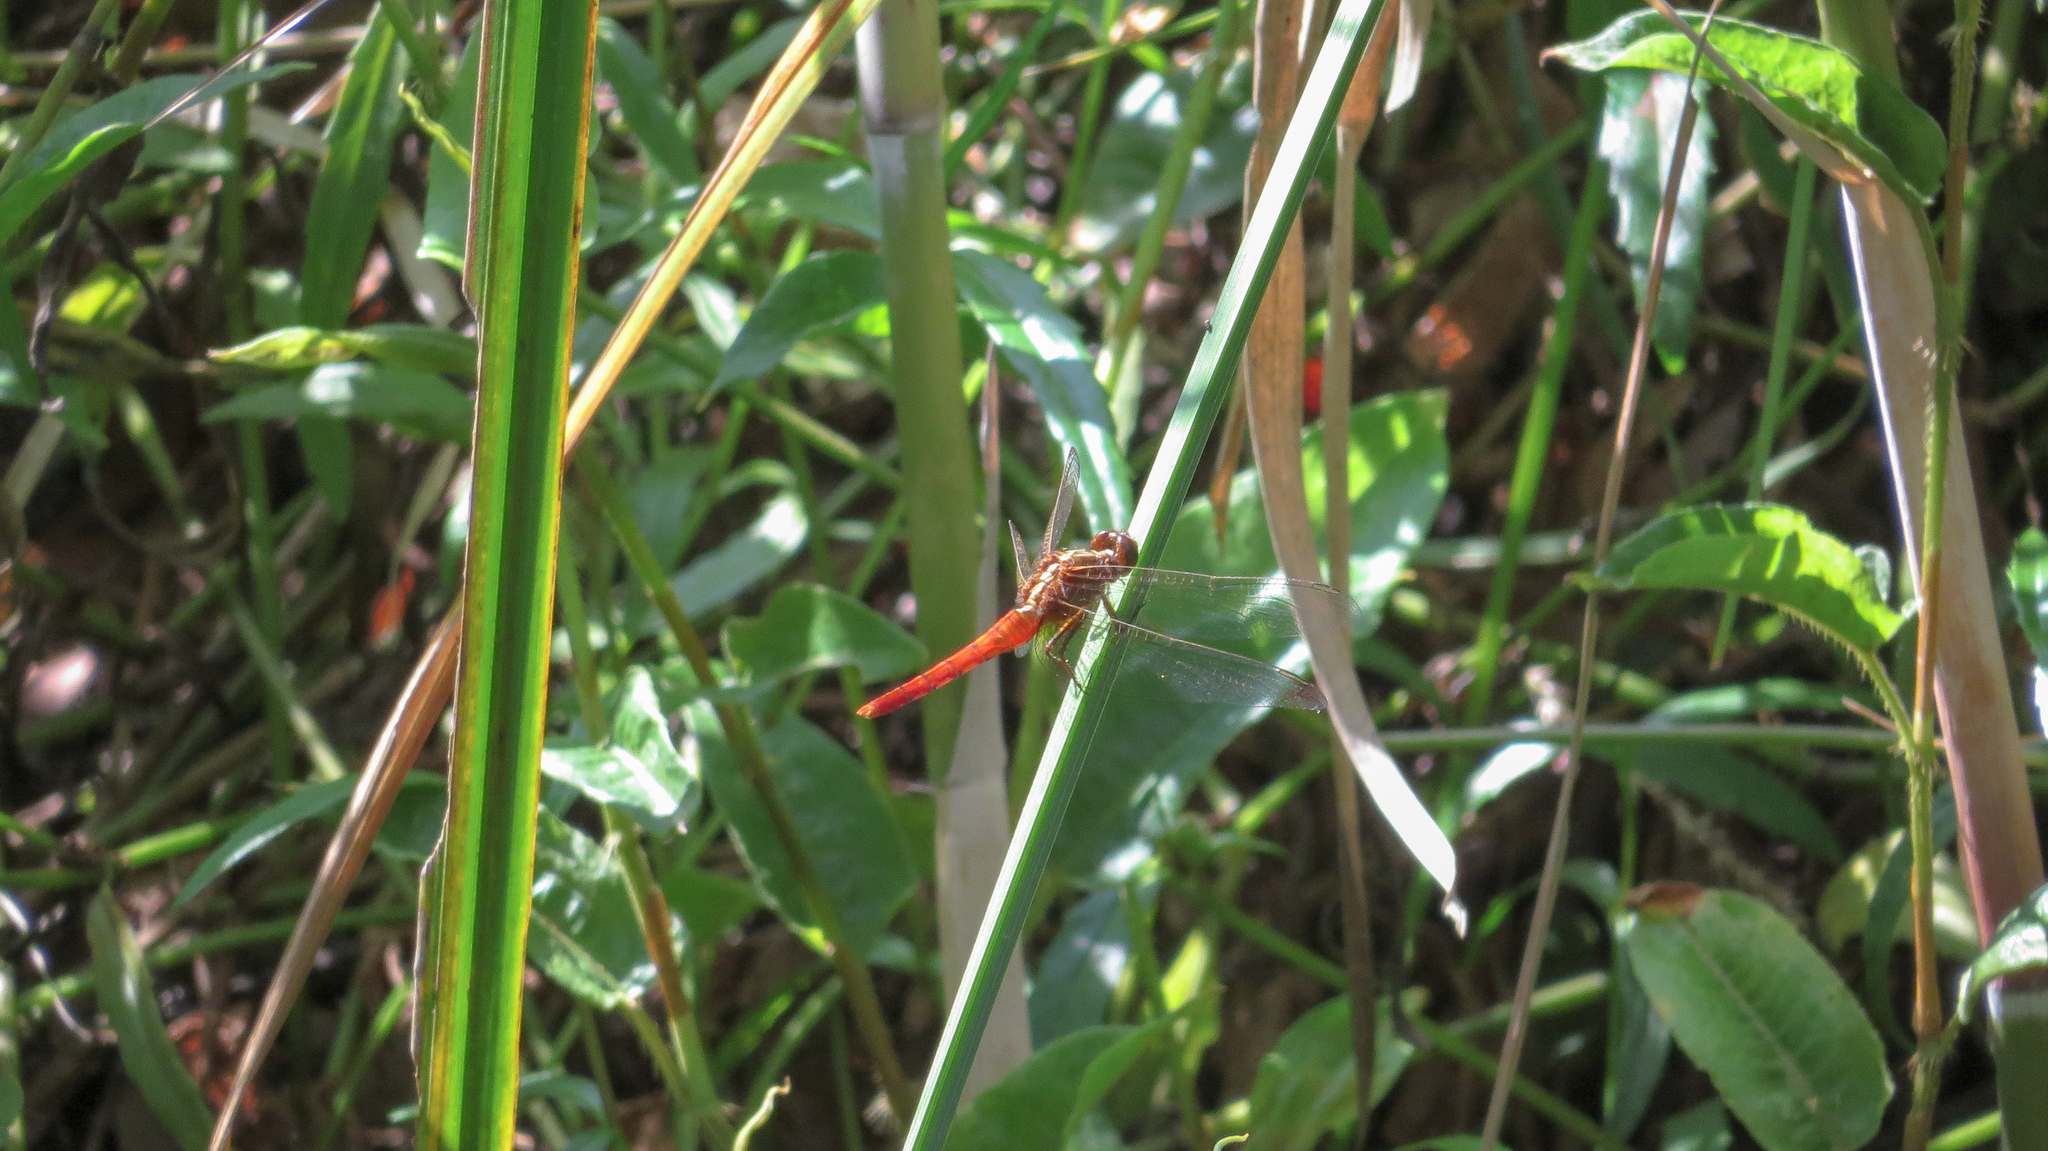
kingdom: Animalia
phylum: Arthropoda
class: Insecta
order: Odonata
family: Libellulidae
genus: Rhodothemis
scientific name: Rhodothemis lieftincki
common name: Red arrow
